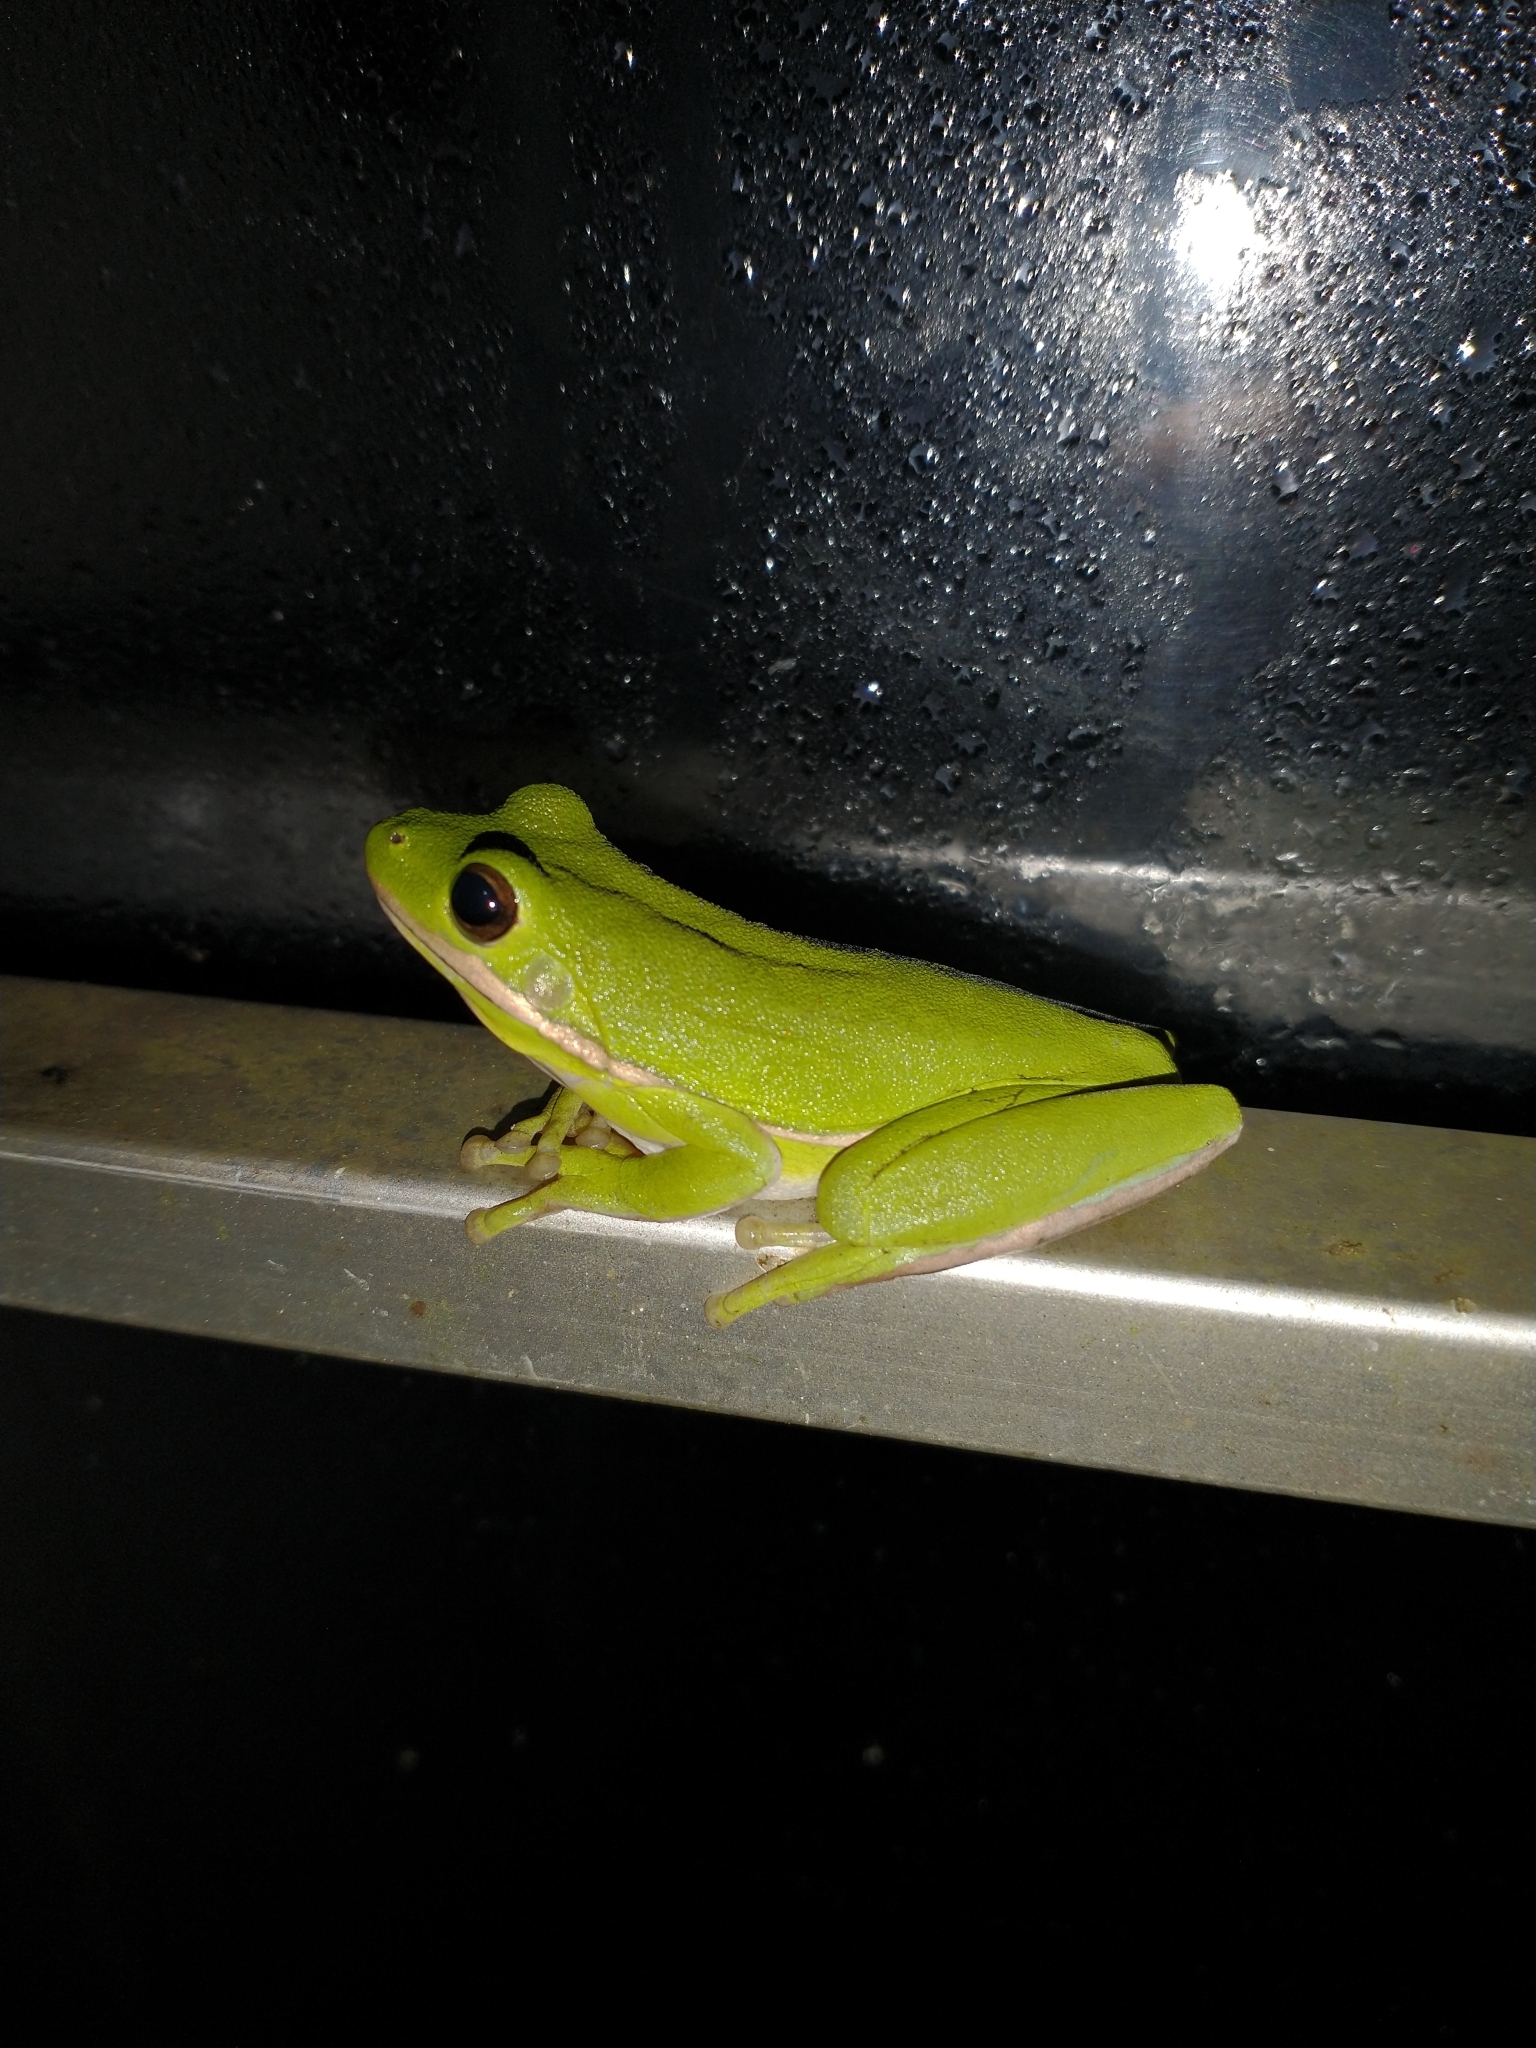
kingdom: Animalia
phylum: Chordata
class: Amphibia
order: Anura
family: Hylidae
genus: Dryophytes
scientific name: Dryophytes cinereus
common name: Green treefrog
